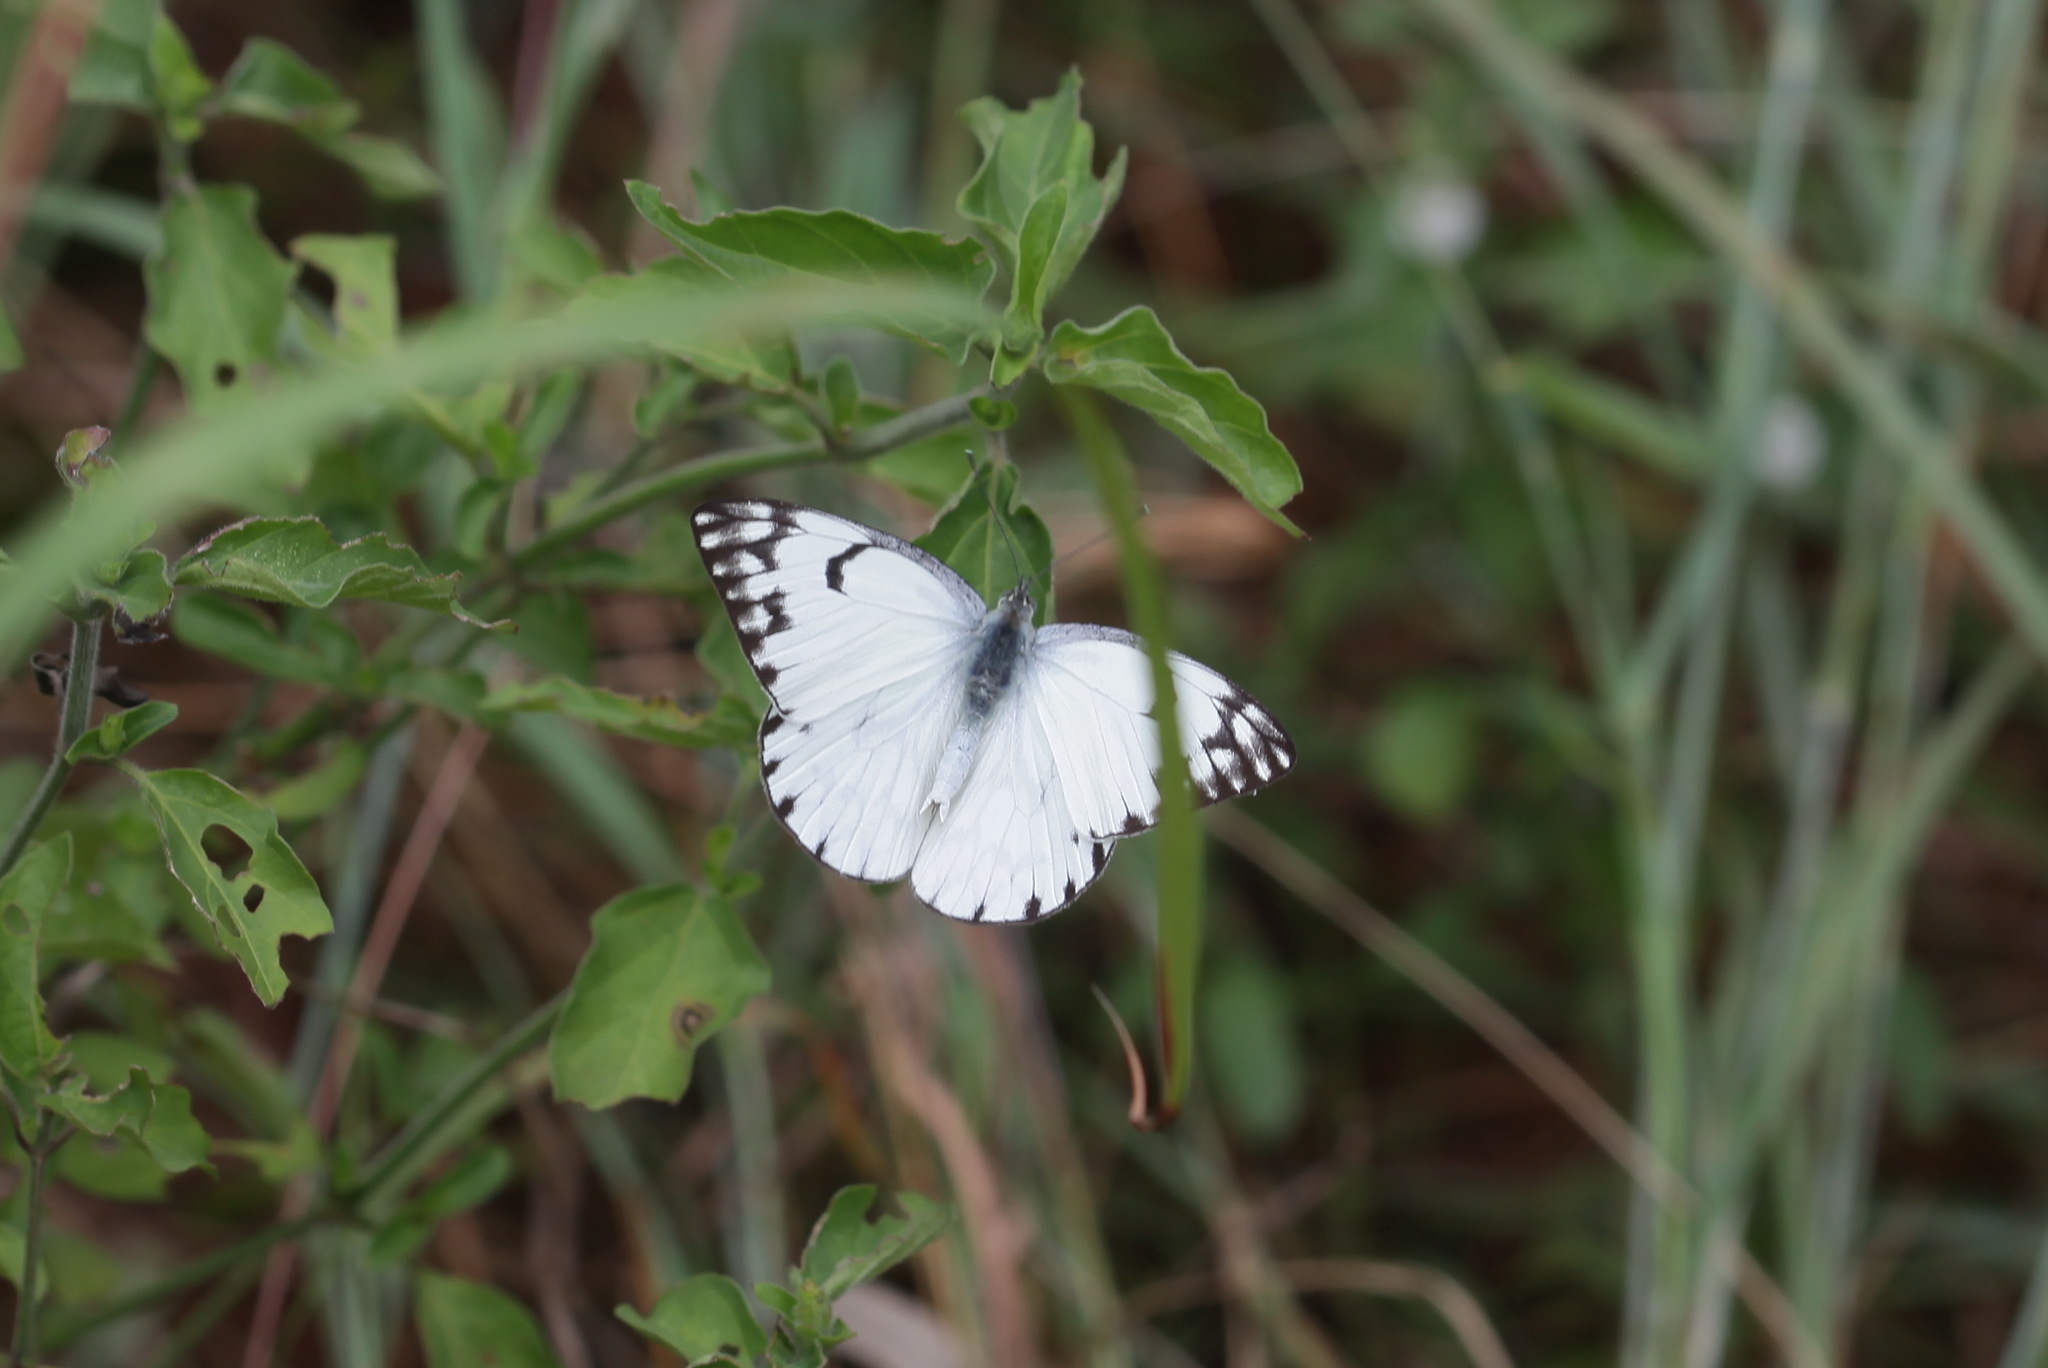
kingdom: Animalia
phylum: Arthropoda
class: Insecta
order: Lepidoptera
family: Pieridae
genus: Belenois
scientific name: Belenois gidica
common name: Pointed caper white
